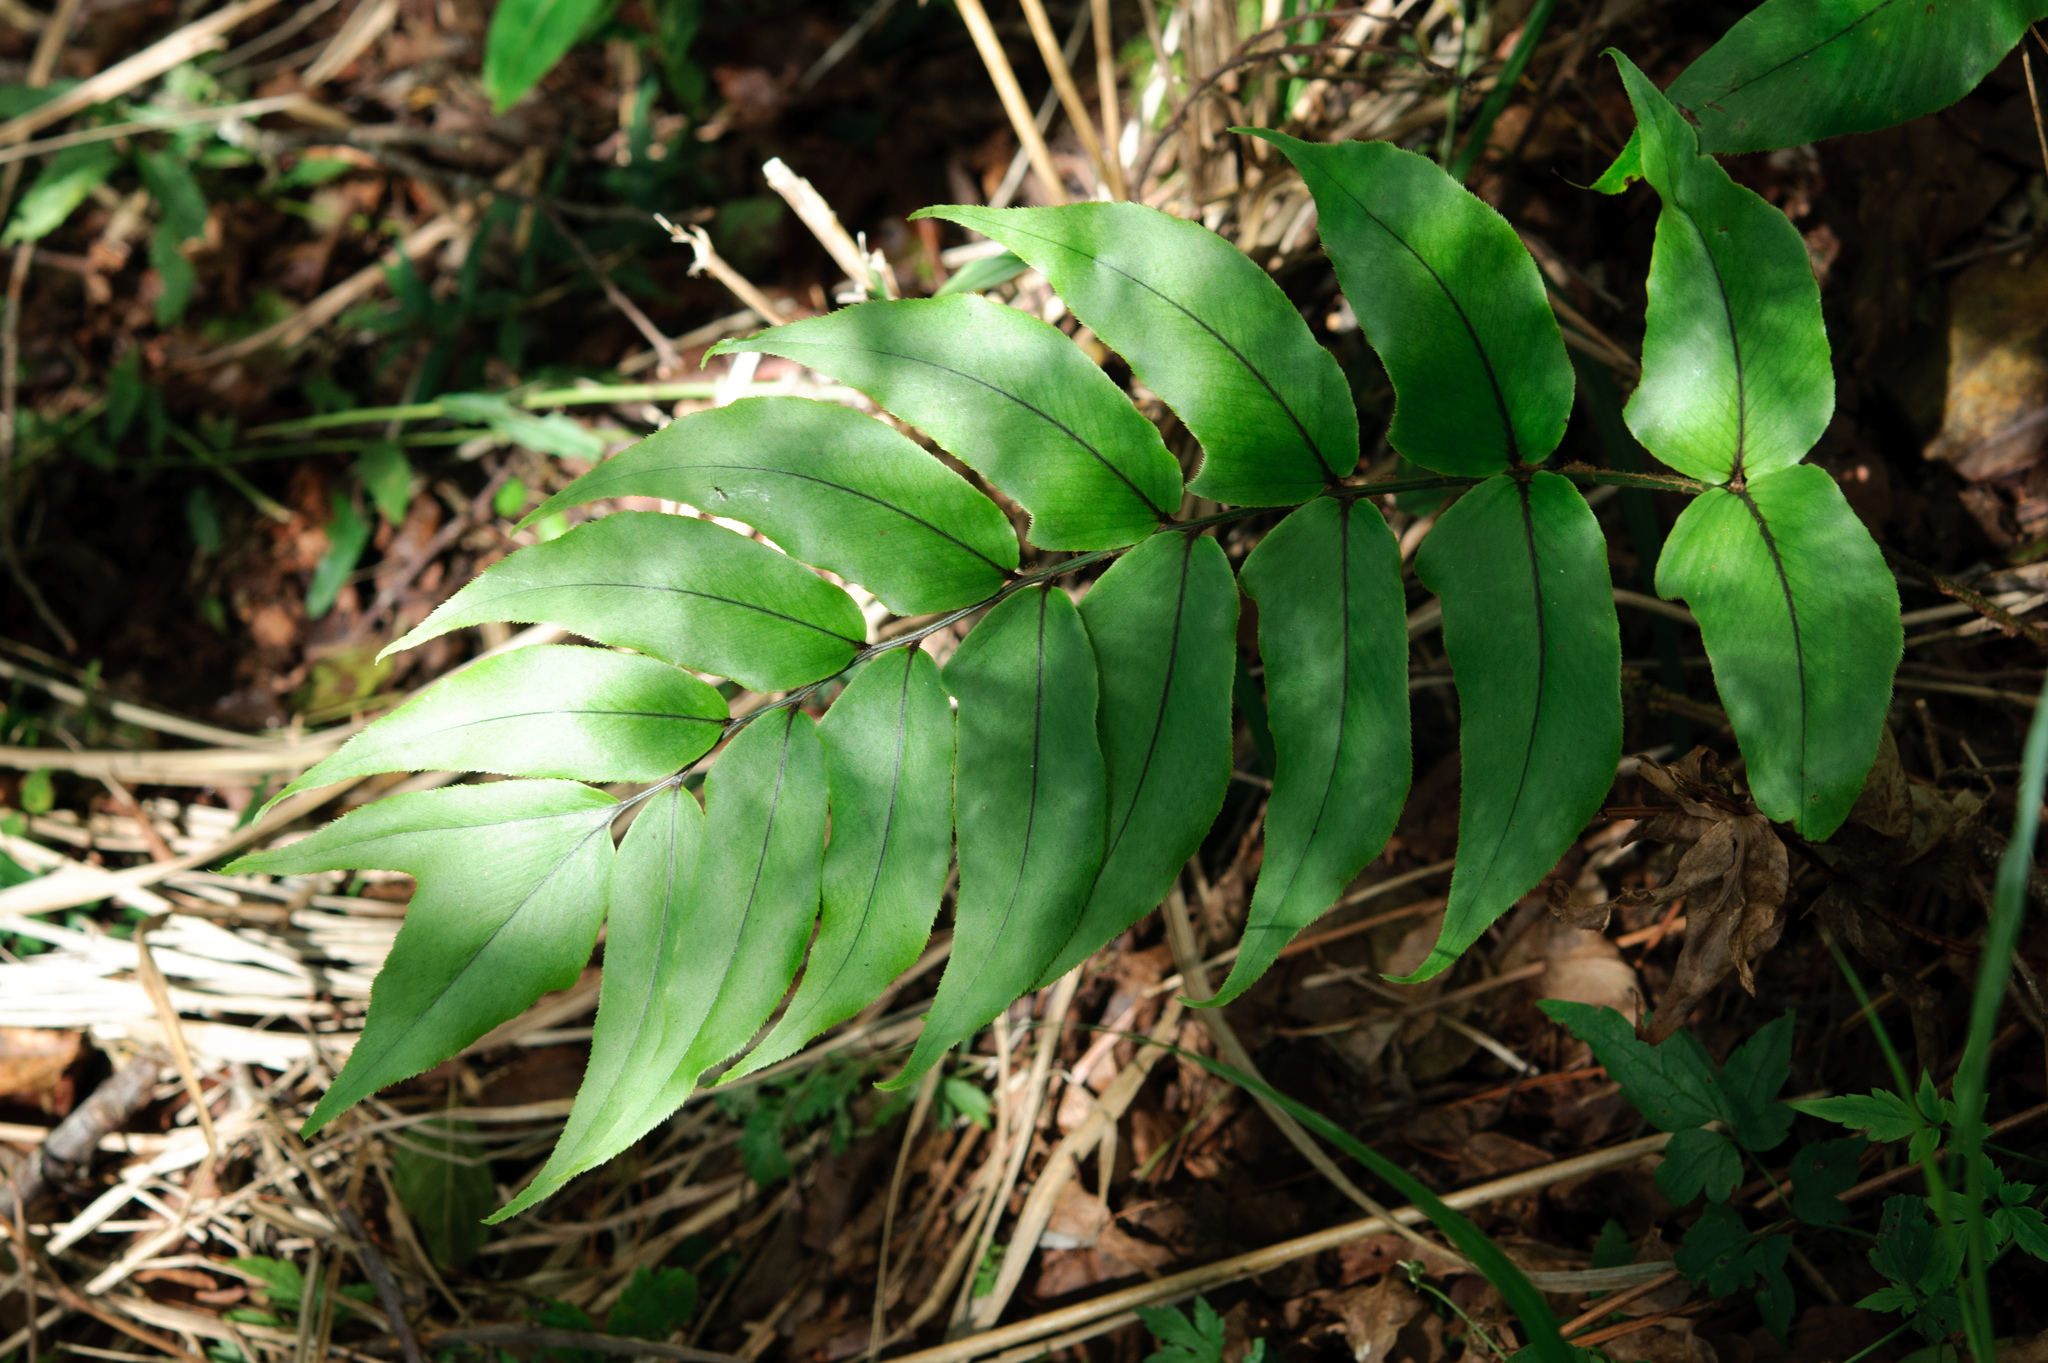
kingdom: Plantae
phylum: Tracheophyta
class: Polypodiopsida
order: Polypodiales
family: Dryopteridaceae
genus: Cyrtomium
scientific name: Cyrtomium anomophyllum
